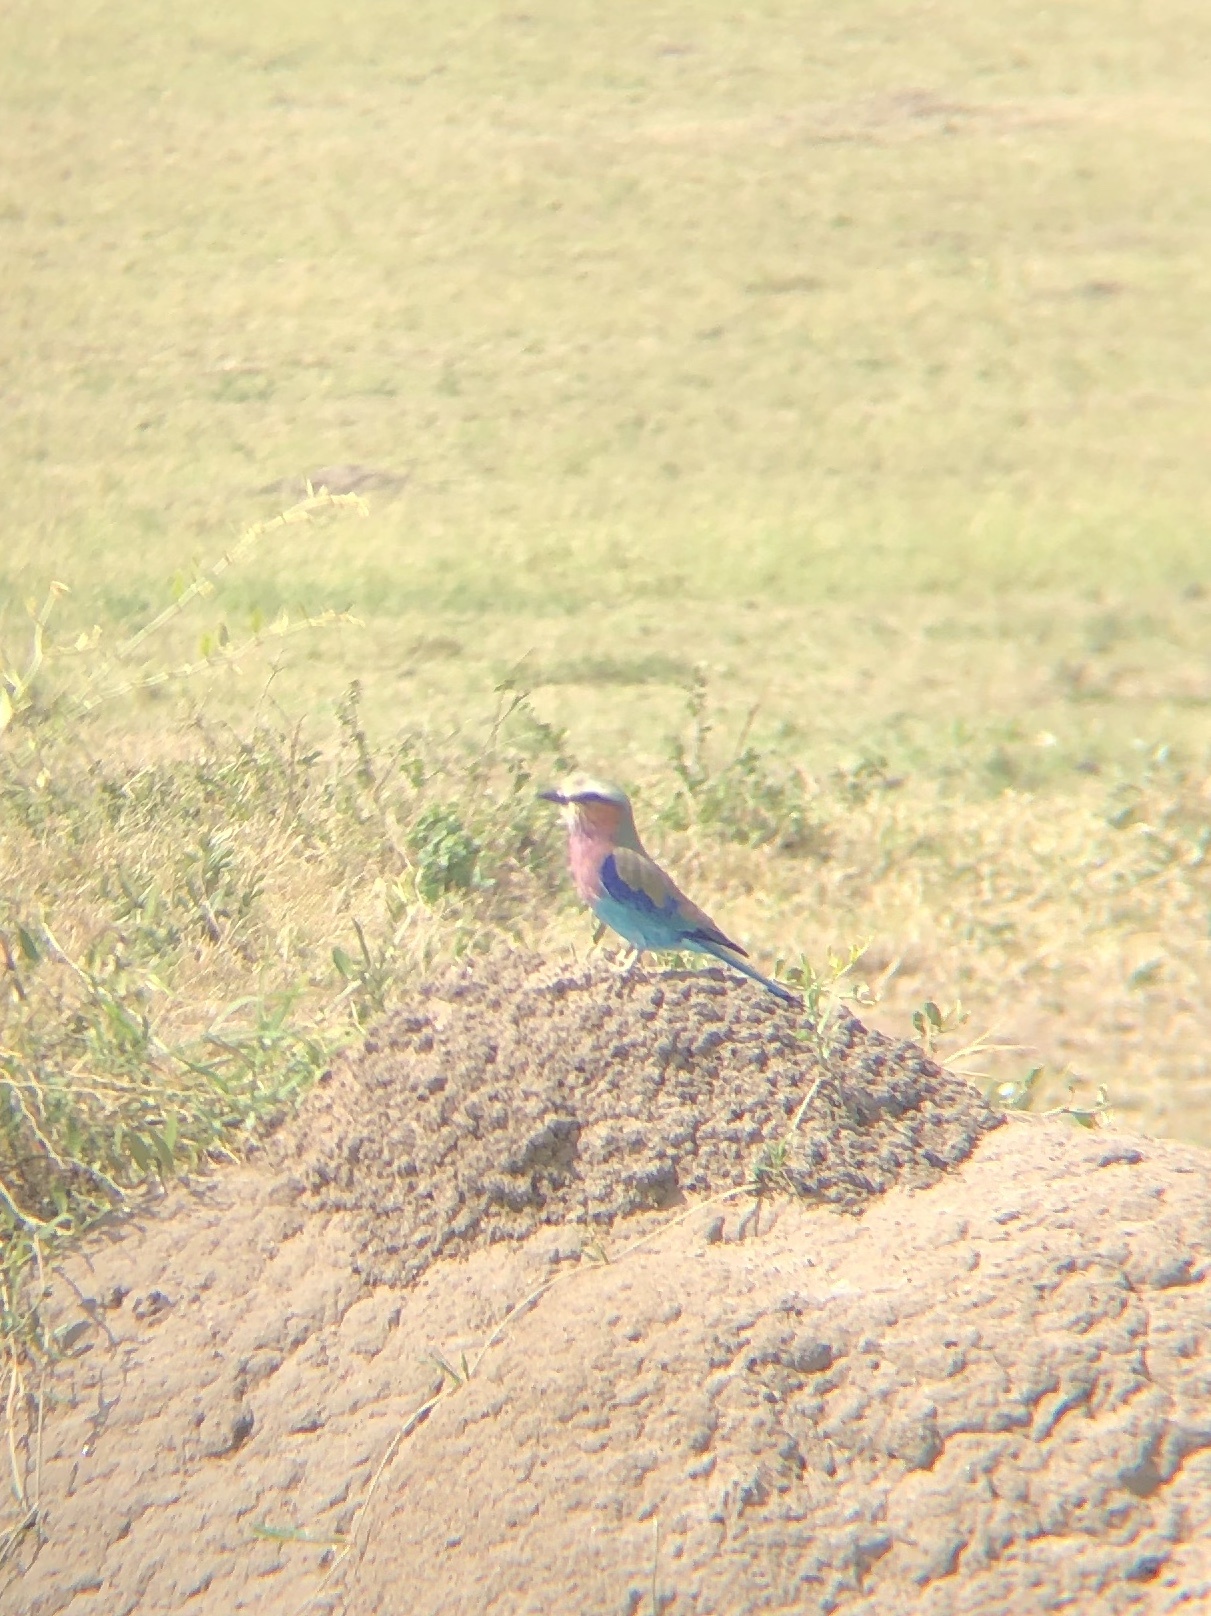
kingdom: Animalia
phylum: Chordata
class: Aves
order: Coraciiformes
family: Coraciidae
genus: Coracias
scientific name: Coracias caudatus
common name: Lilac-breasted roller
